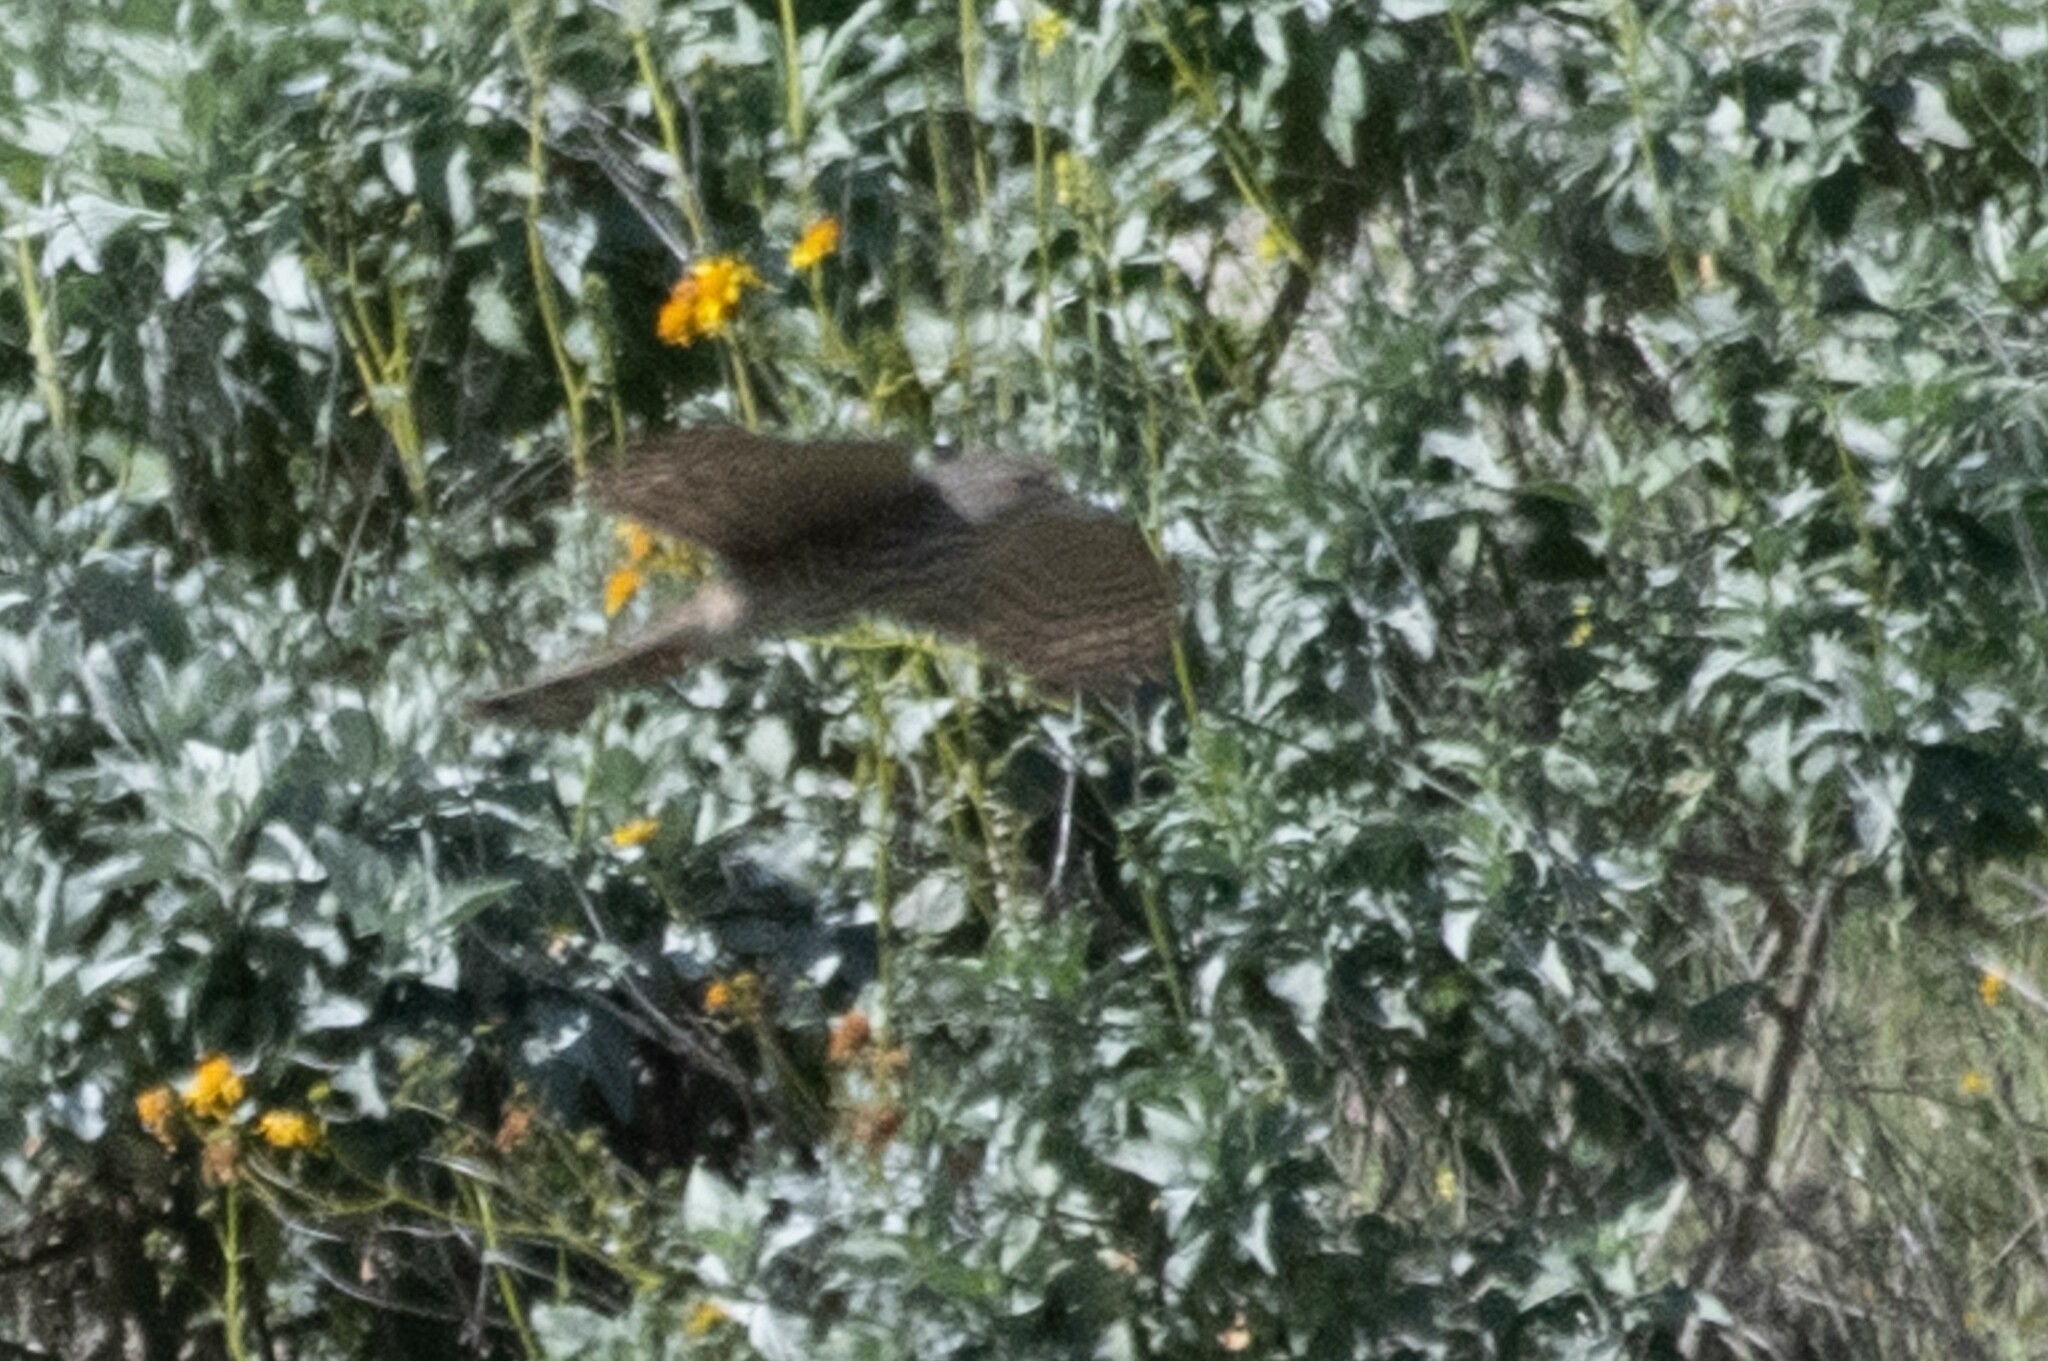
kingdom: Animalia
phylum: Chordata
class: Aves
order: Accipitriformes
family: Accipitridae
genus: Accipiter
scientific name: Accipiter striatus
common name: Sharp-shinned hawk
